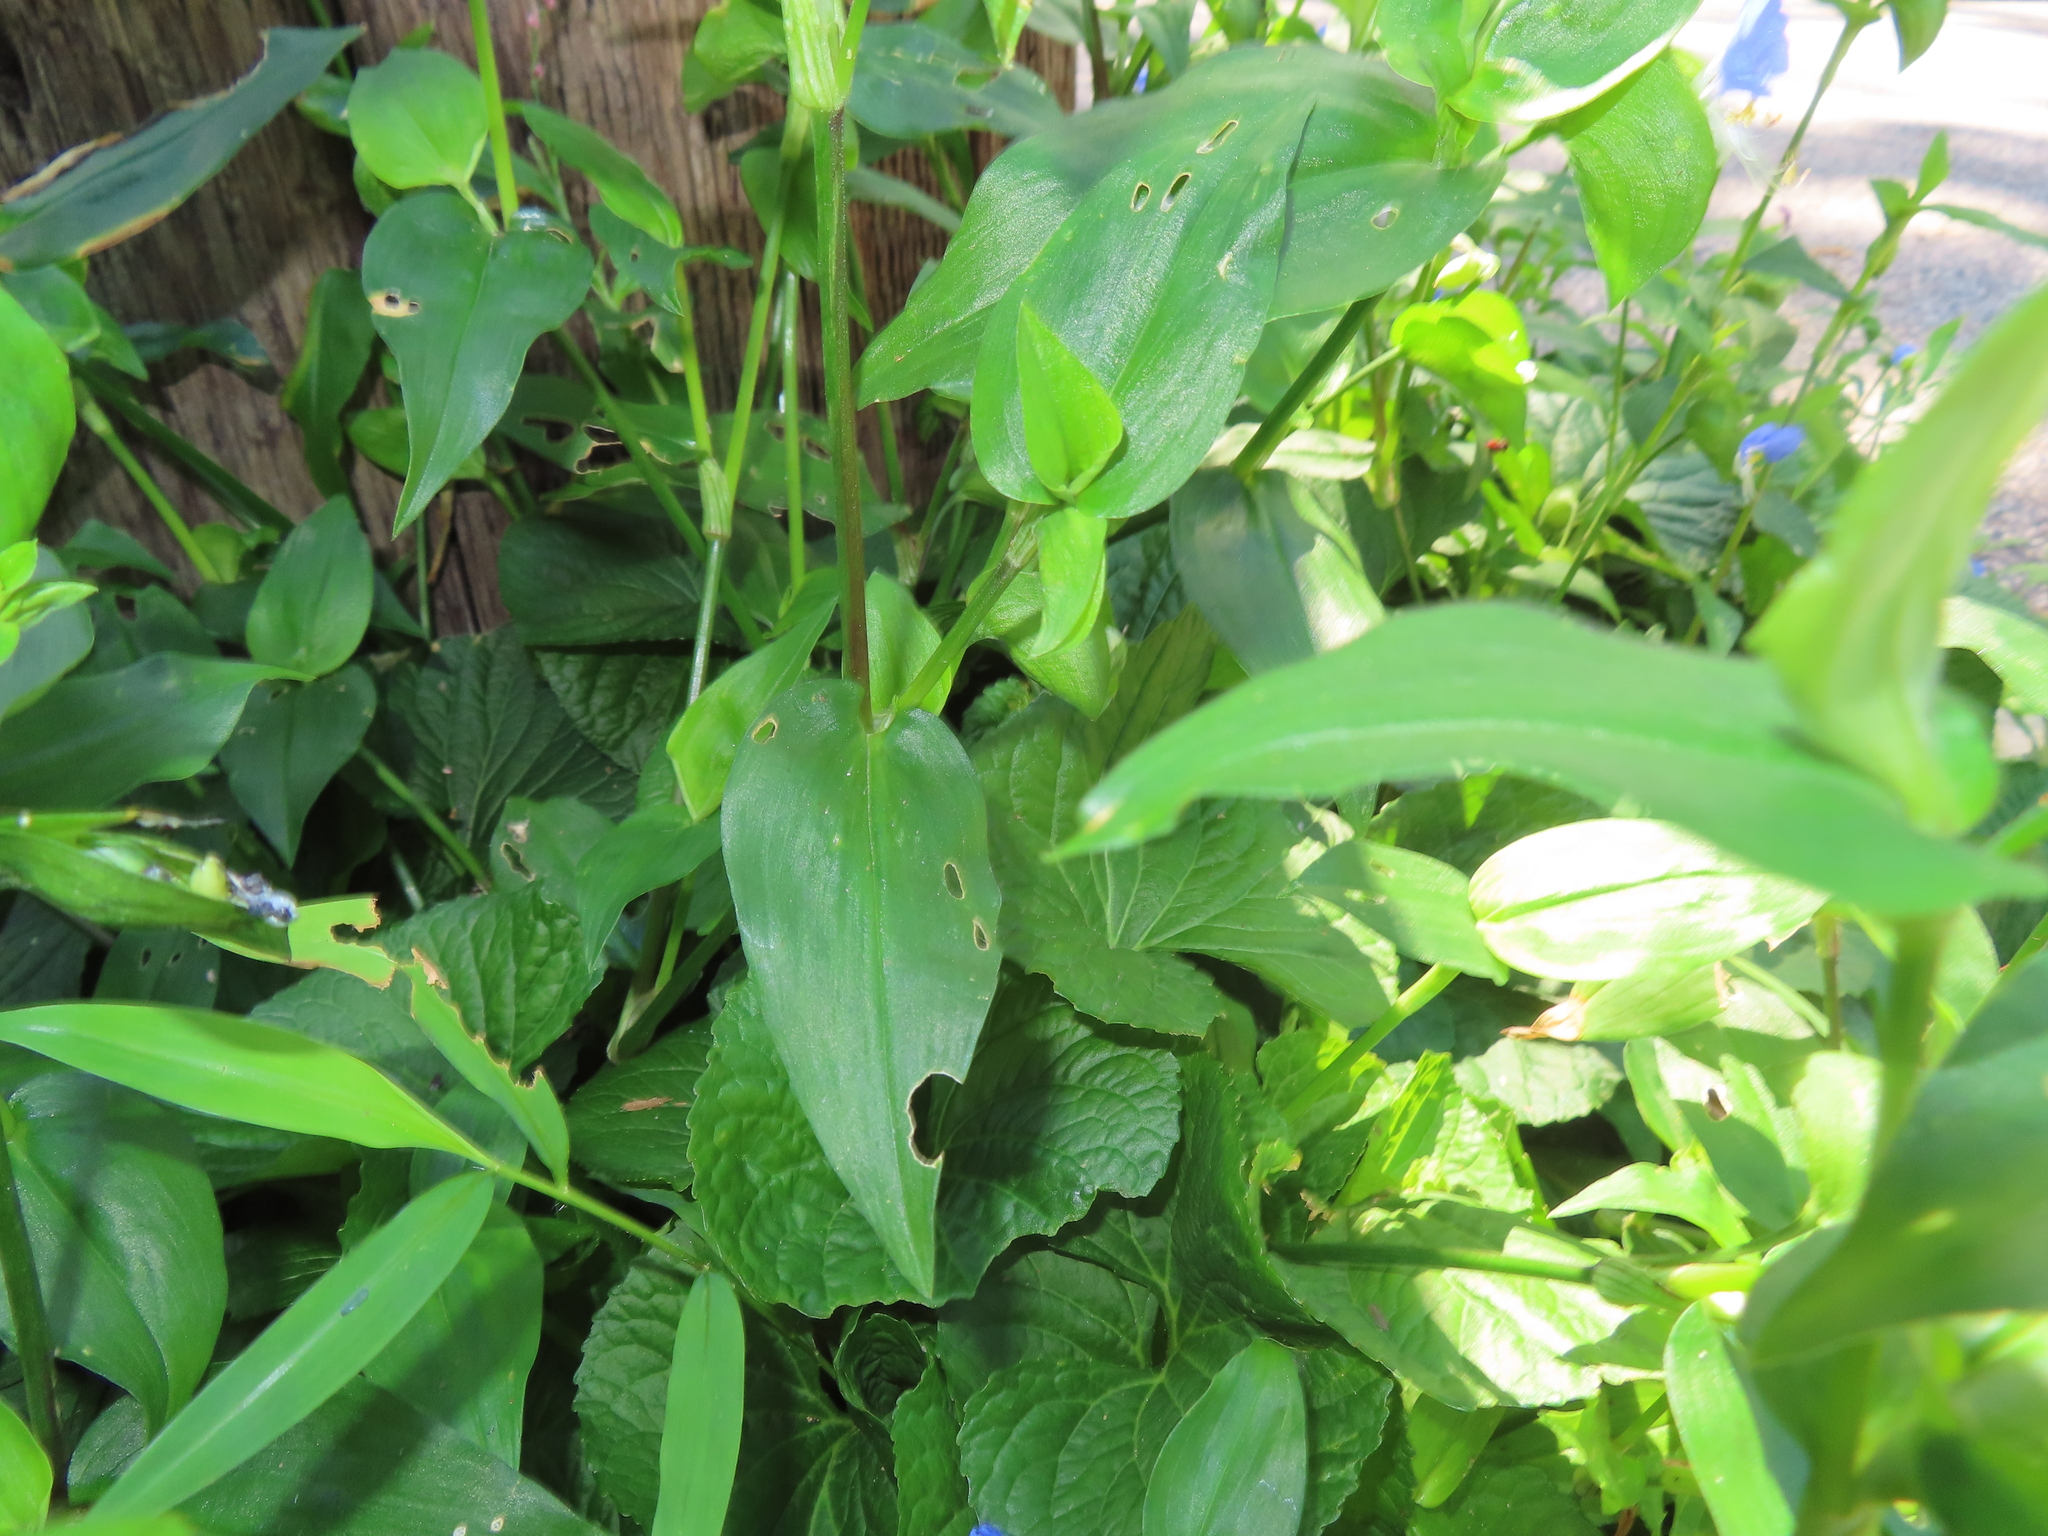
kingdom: Plantae
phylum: Tracheophyta
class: Liliopsida
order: Commelinales
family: Commelinaceae
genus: Commelina
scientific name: Commelina communis
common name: Asiatic dayflower
